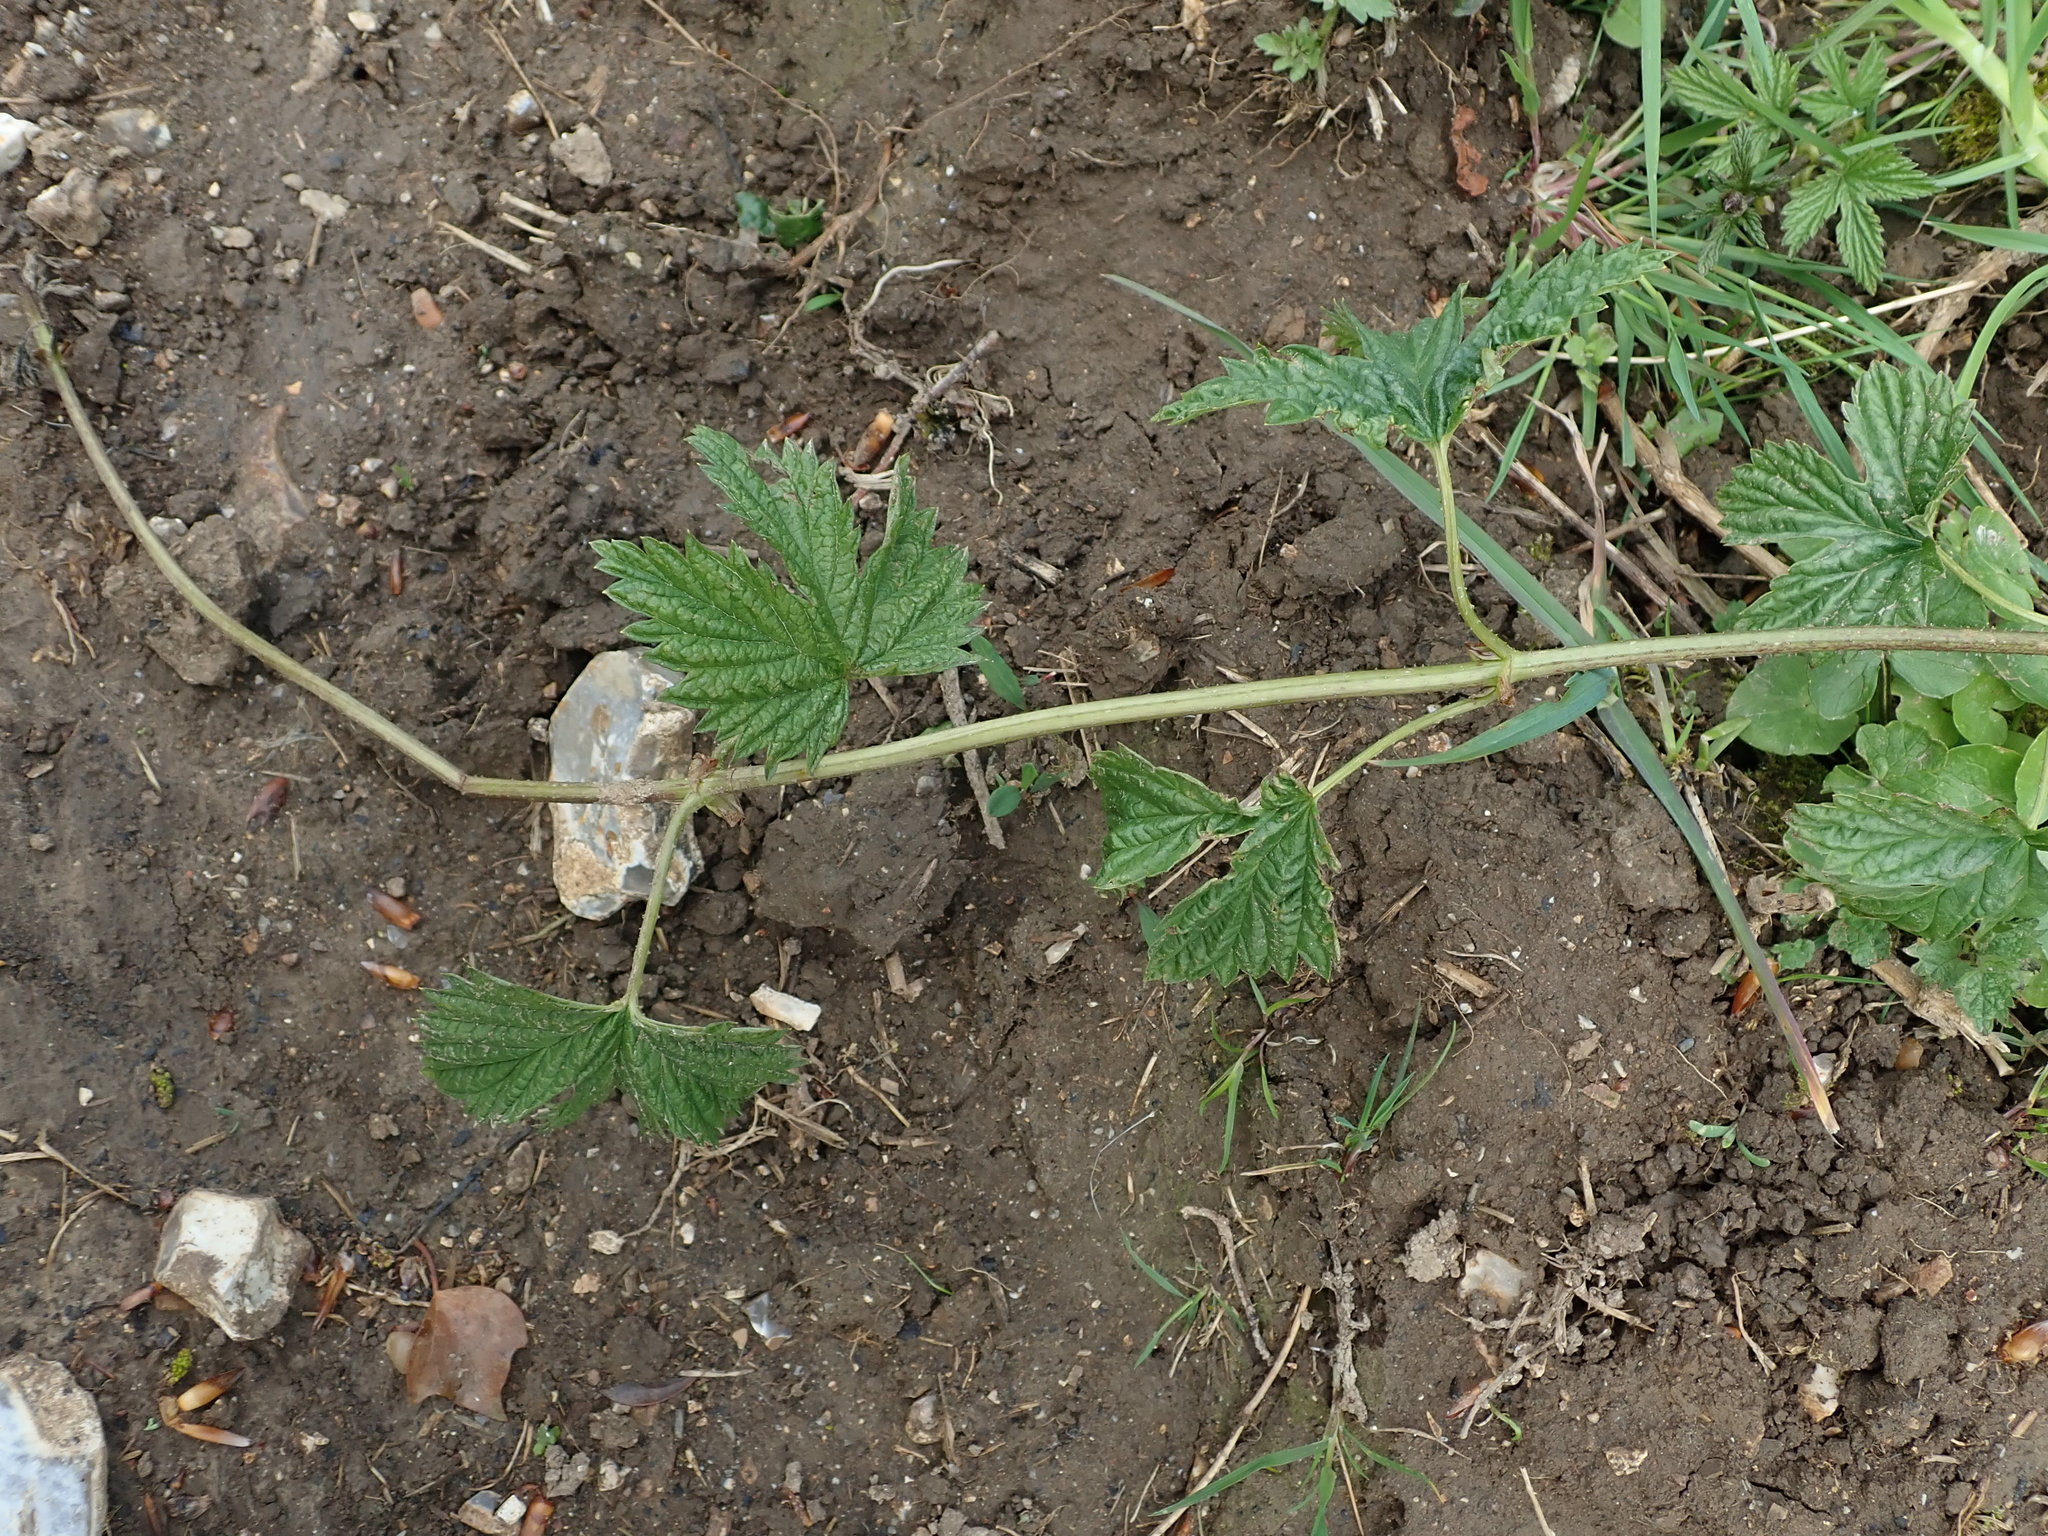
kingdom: Plantae
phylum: Tracheophyta
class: Magnoliopsida
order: Rosales
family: Cannabaceae
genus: Humulus
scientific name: Humulus lupulus
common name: Hop
